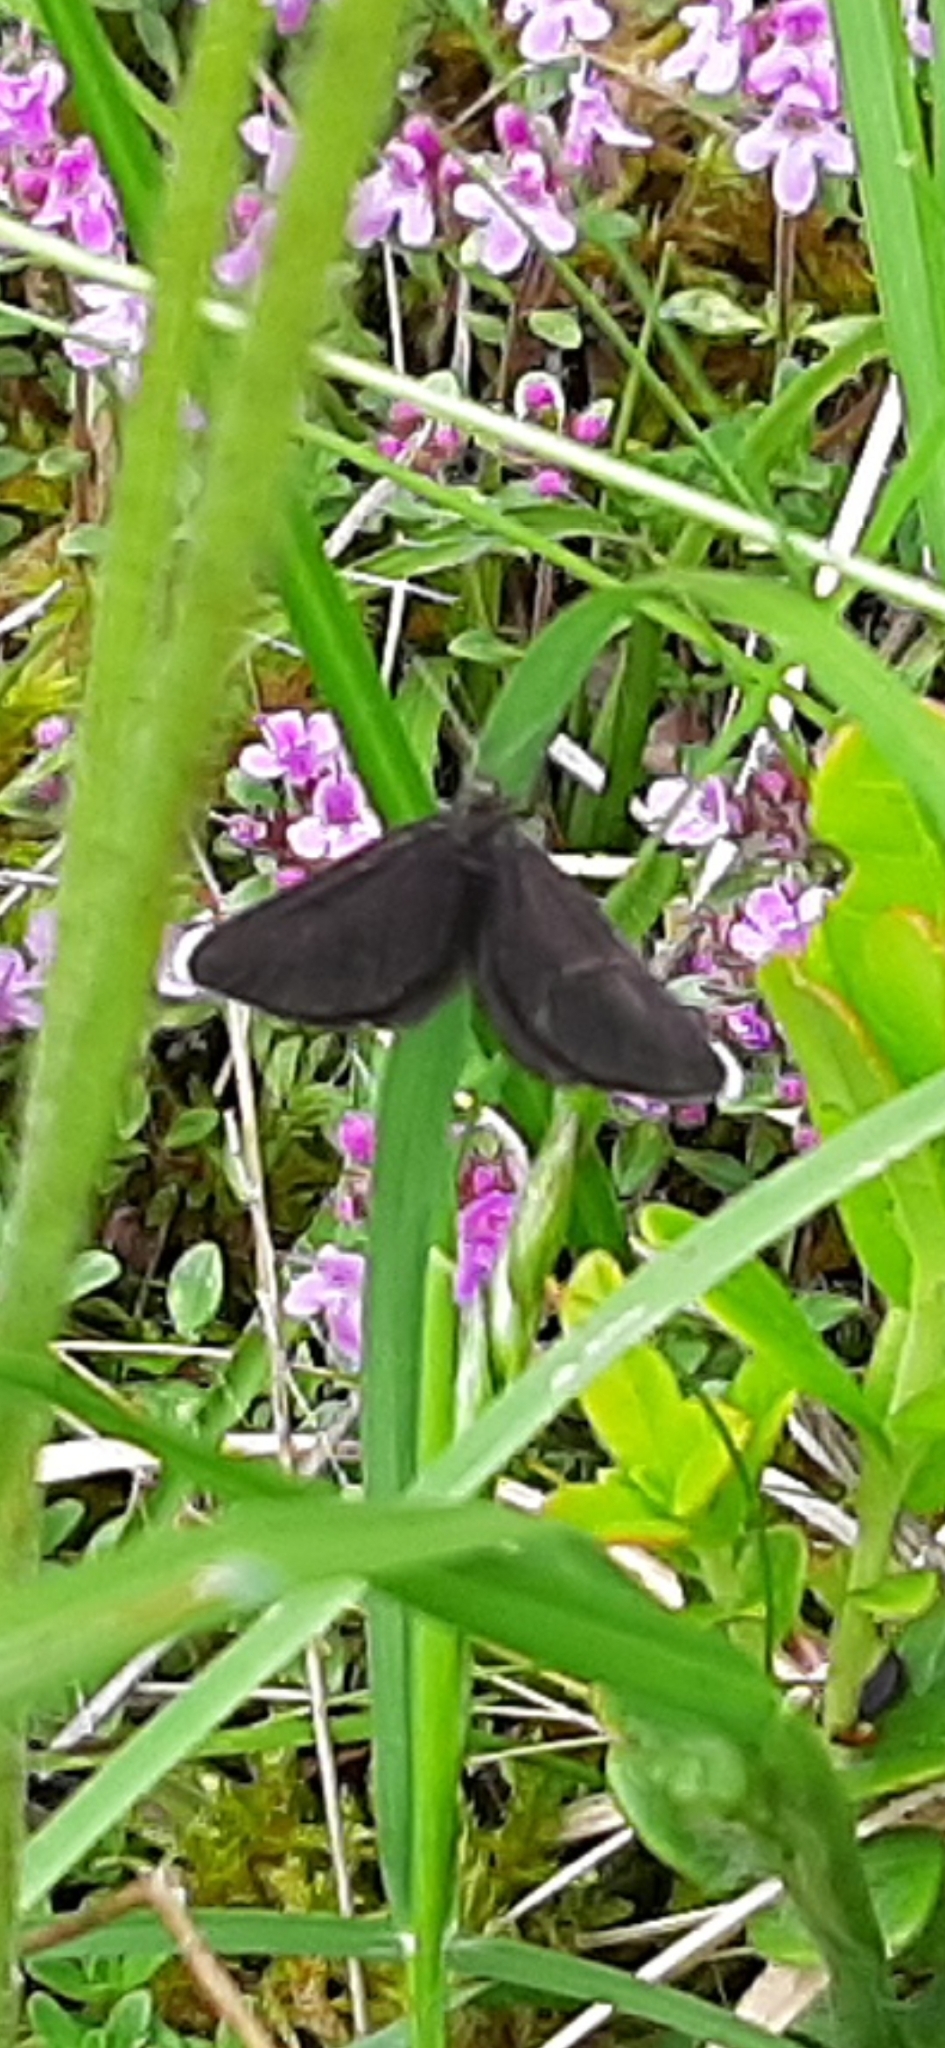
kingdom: Animalia
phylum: Arthropoda
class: Insecta
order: Lepidoptera
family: Geometridae
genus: Odezia
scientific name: Odezia atrata
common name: Chimney sweeper
